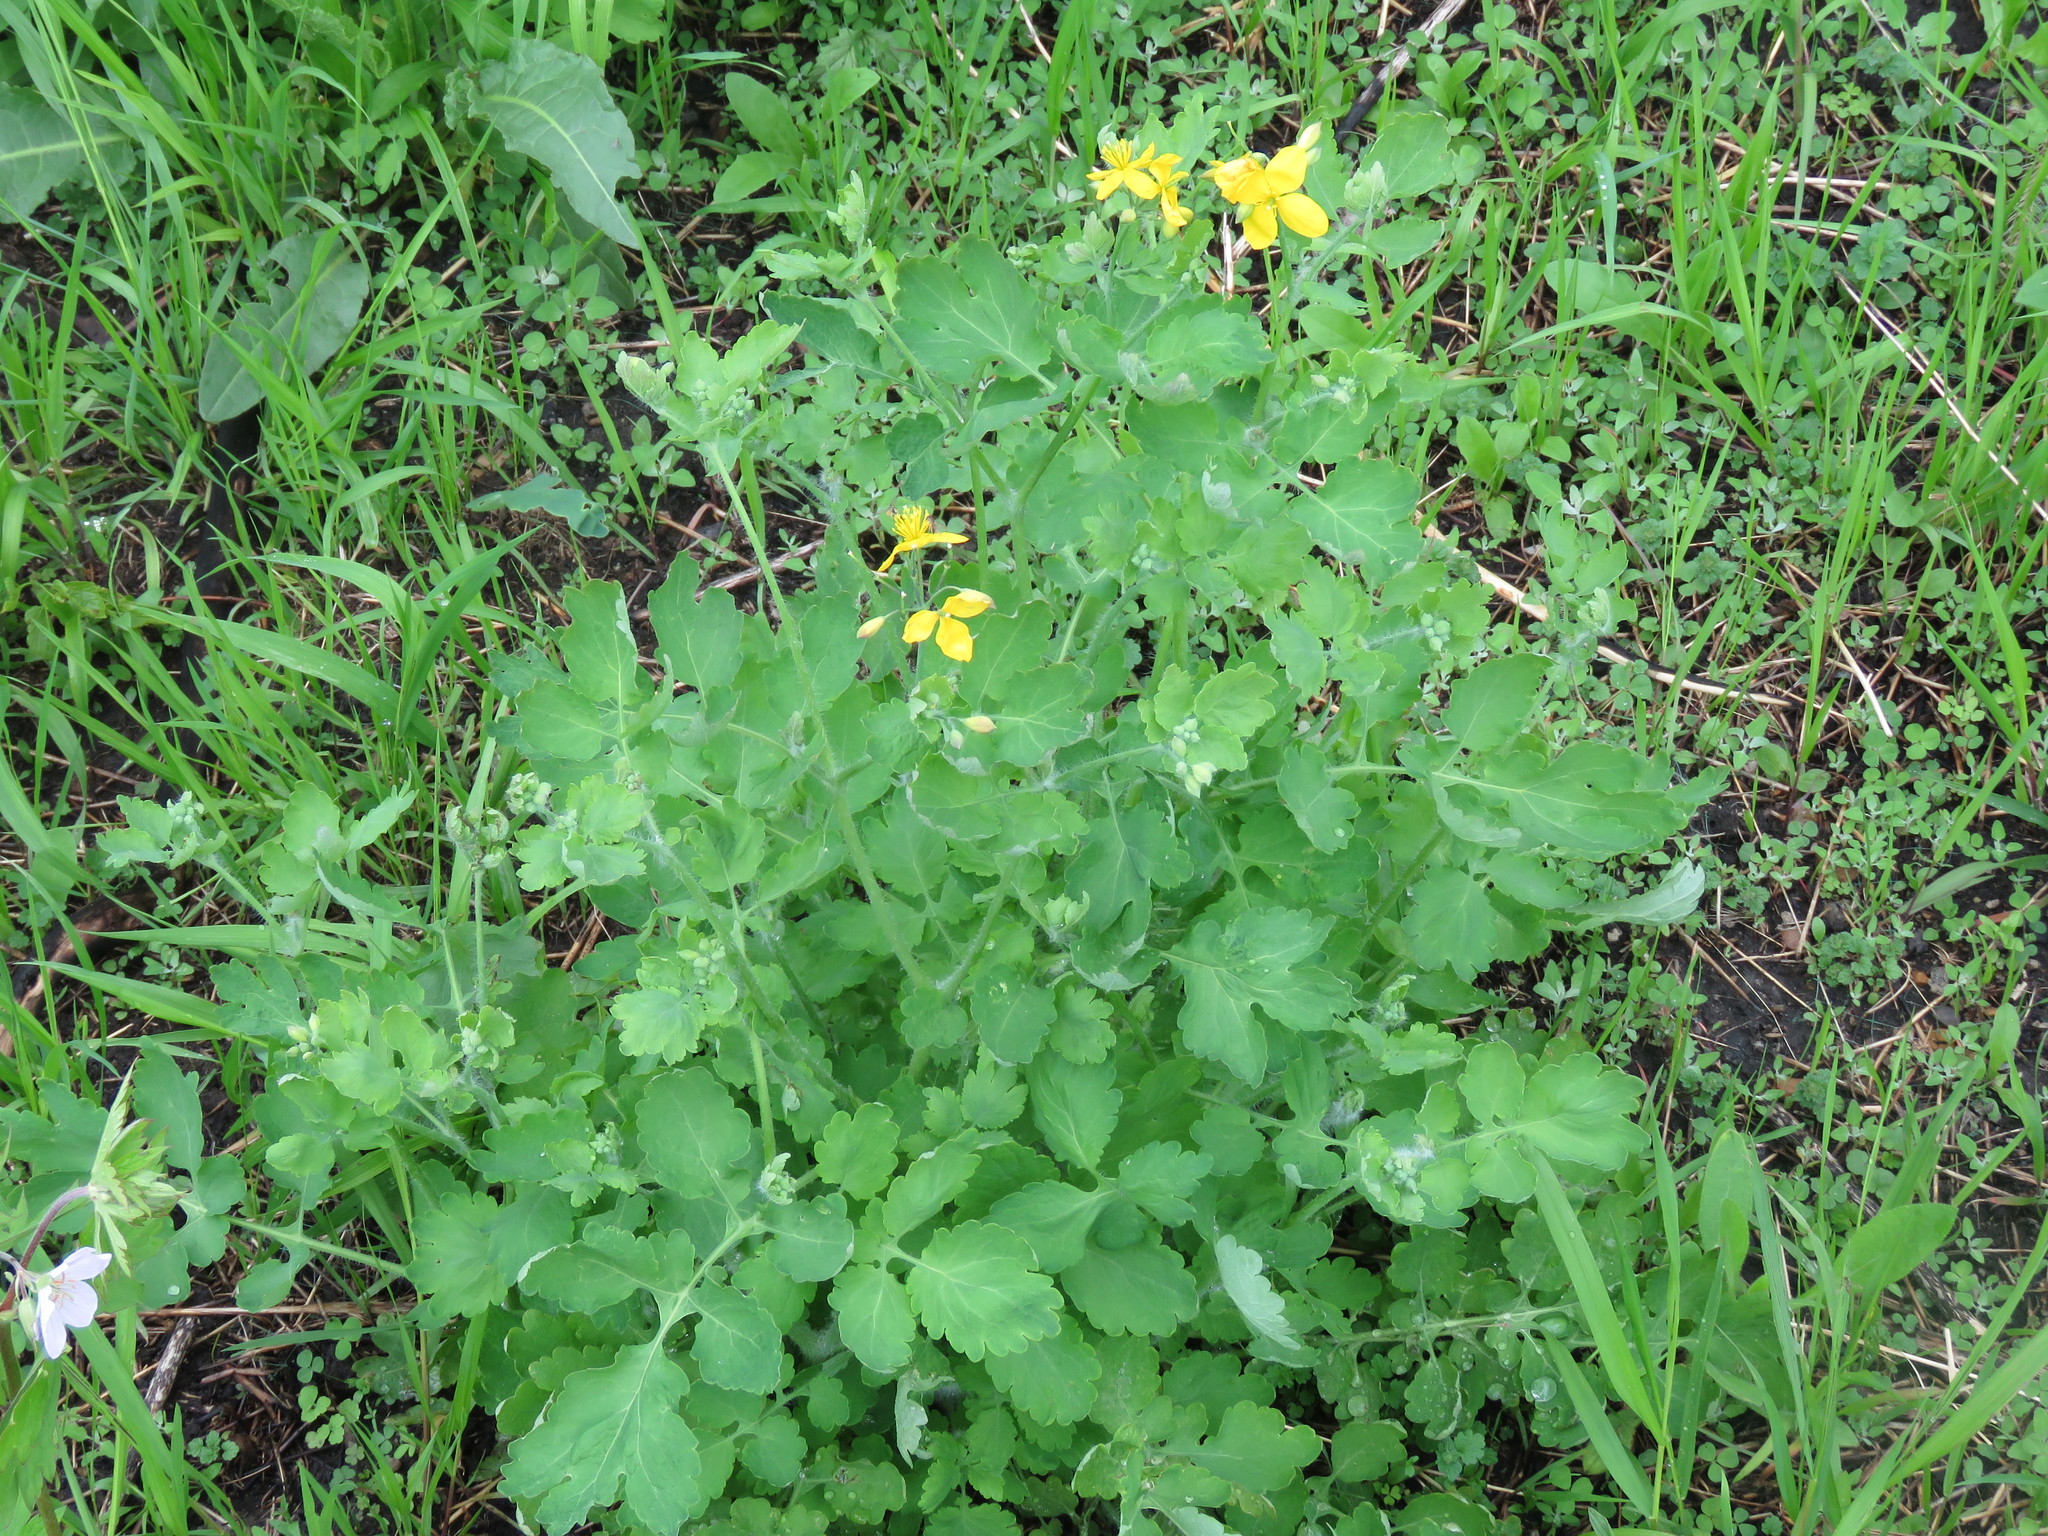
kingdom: Plantae
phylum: Tracheophyta
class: Magnoliopsida
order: Ranunculales
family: Papaveraceae
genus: Chelidonium
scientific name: Chelidonium majus
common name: Greater celandine
